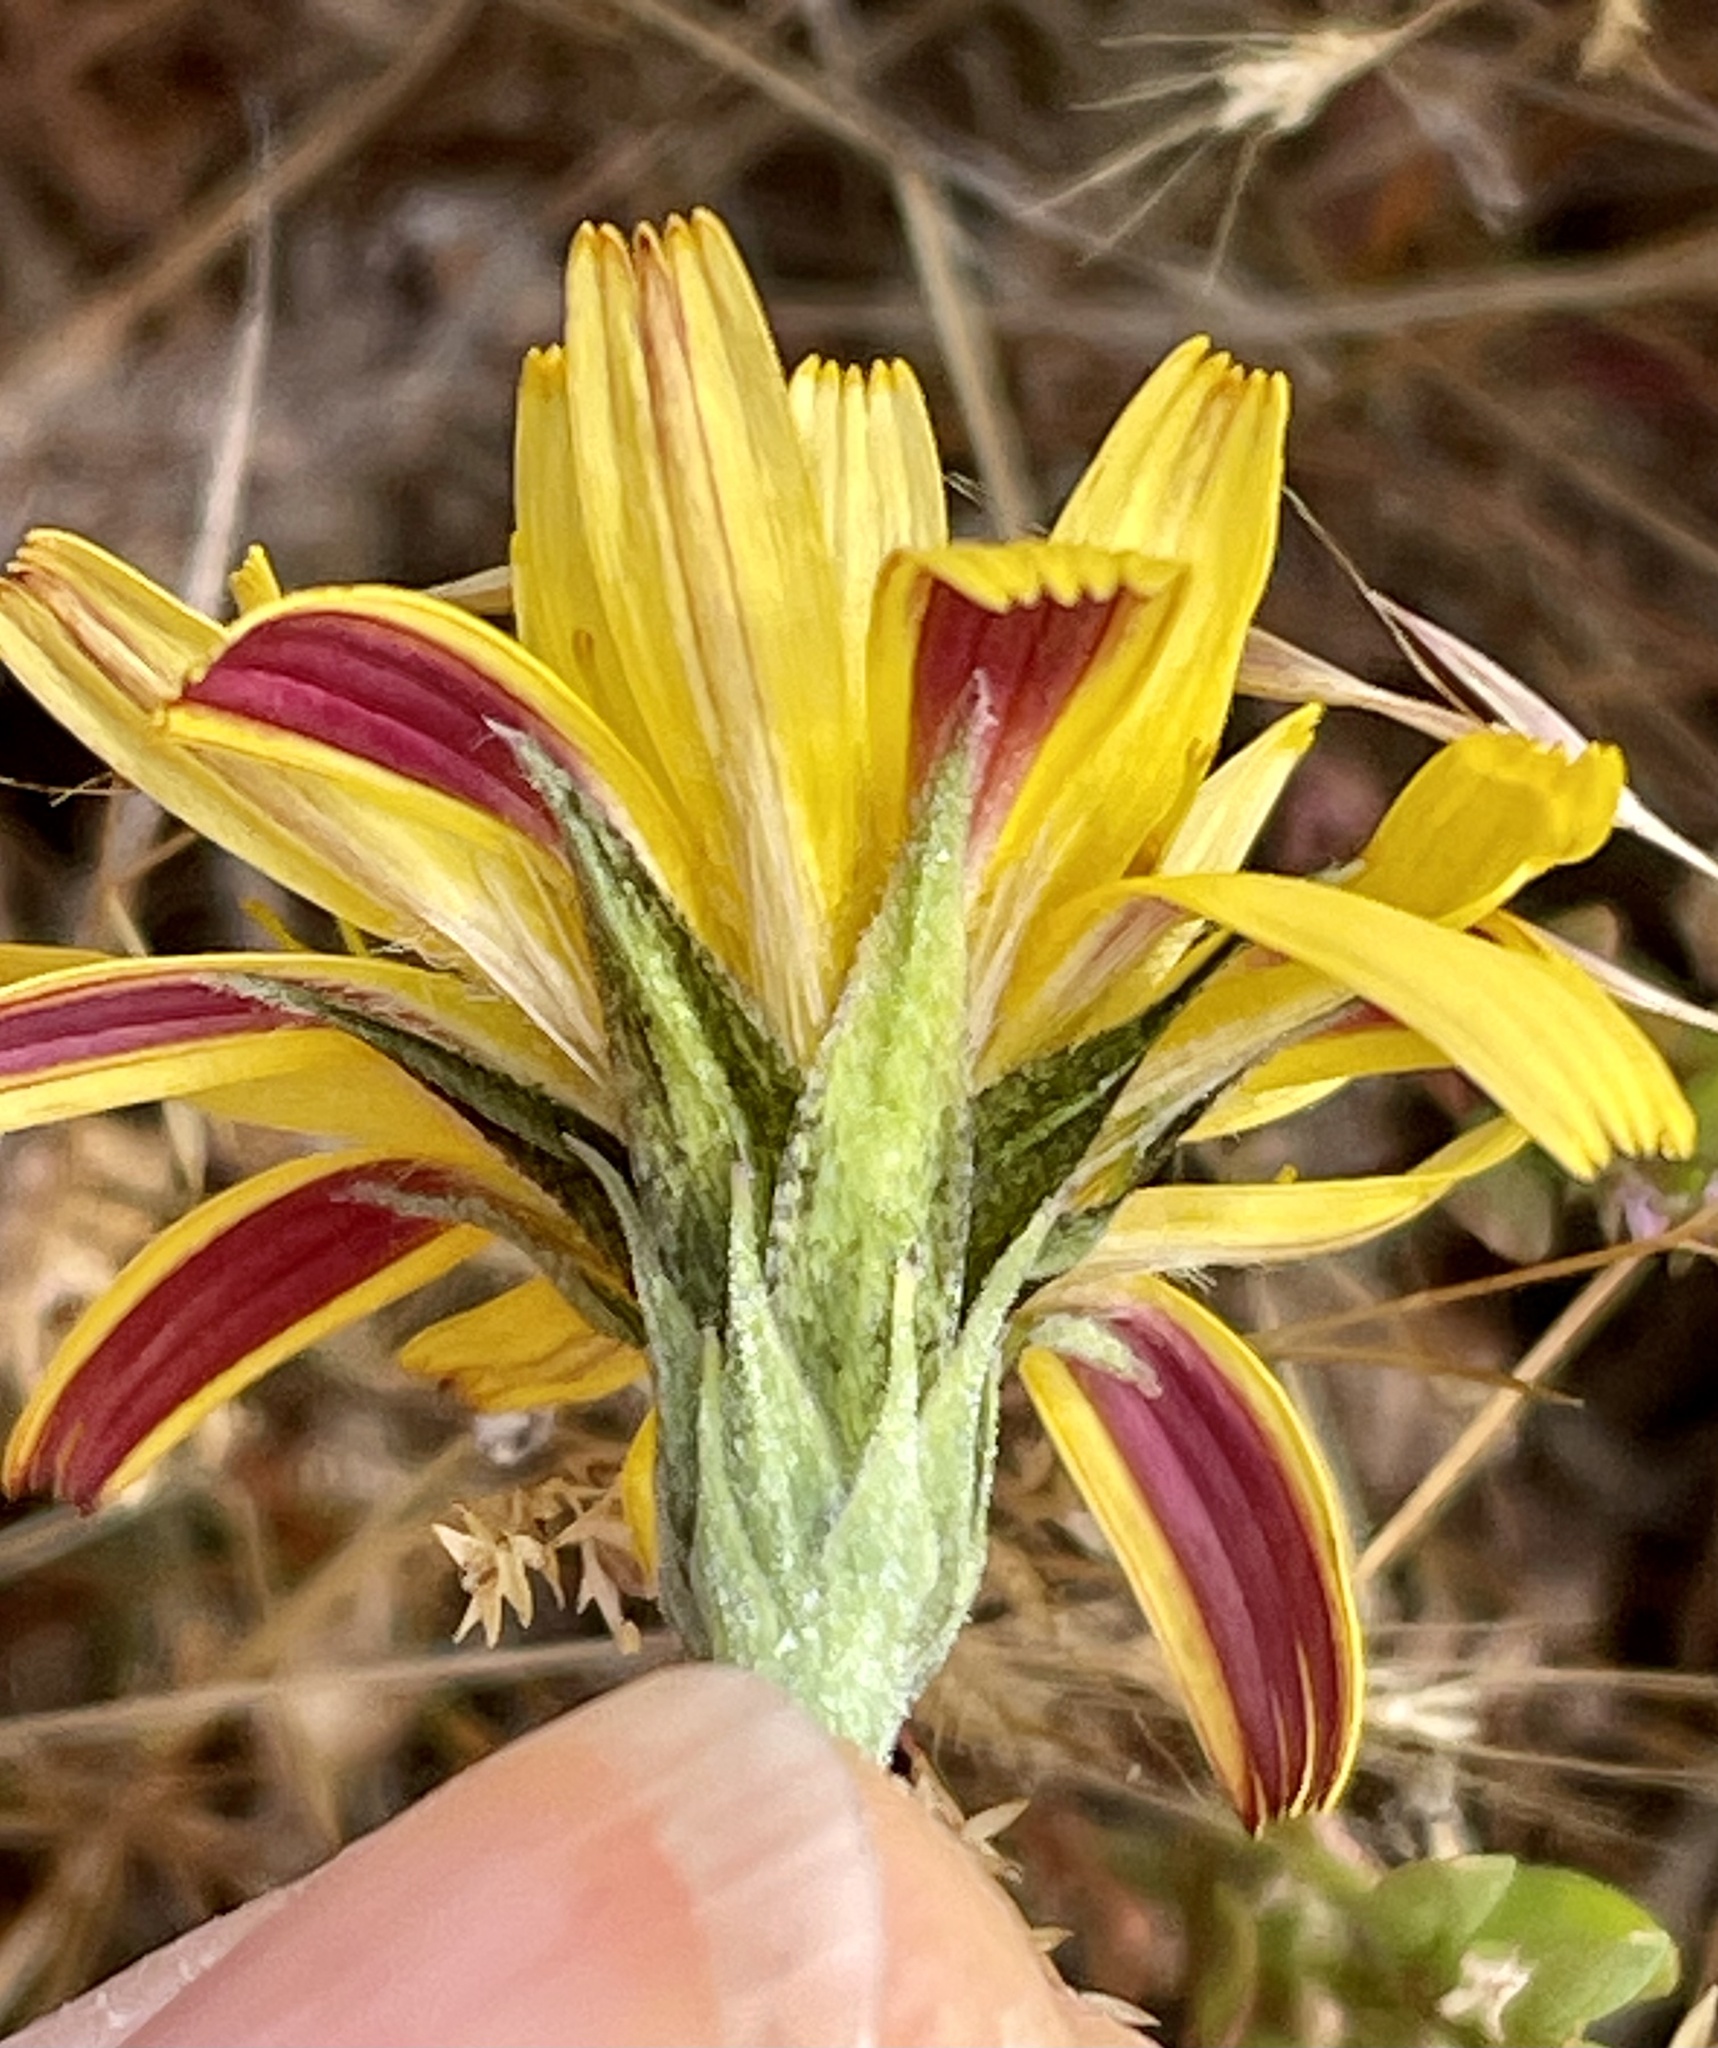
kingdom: Plantae
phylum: Tracheophyta
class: Magnoliopsida
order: Asterales
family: Asteraceae
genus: Microseris
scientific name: Microseris paludosa
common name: Marsh silverpuffs
